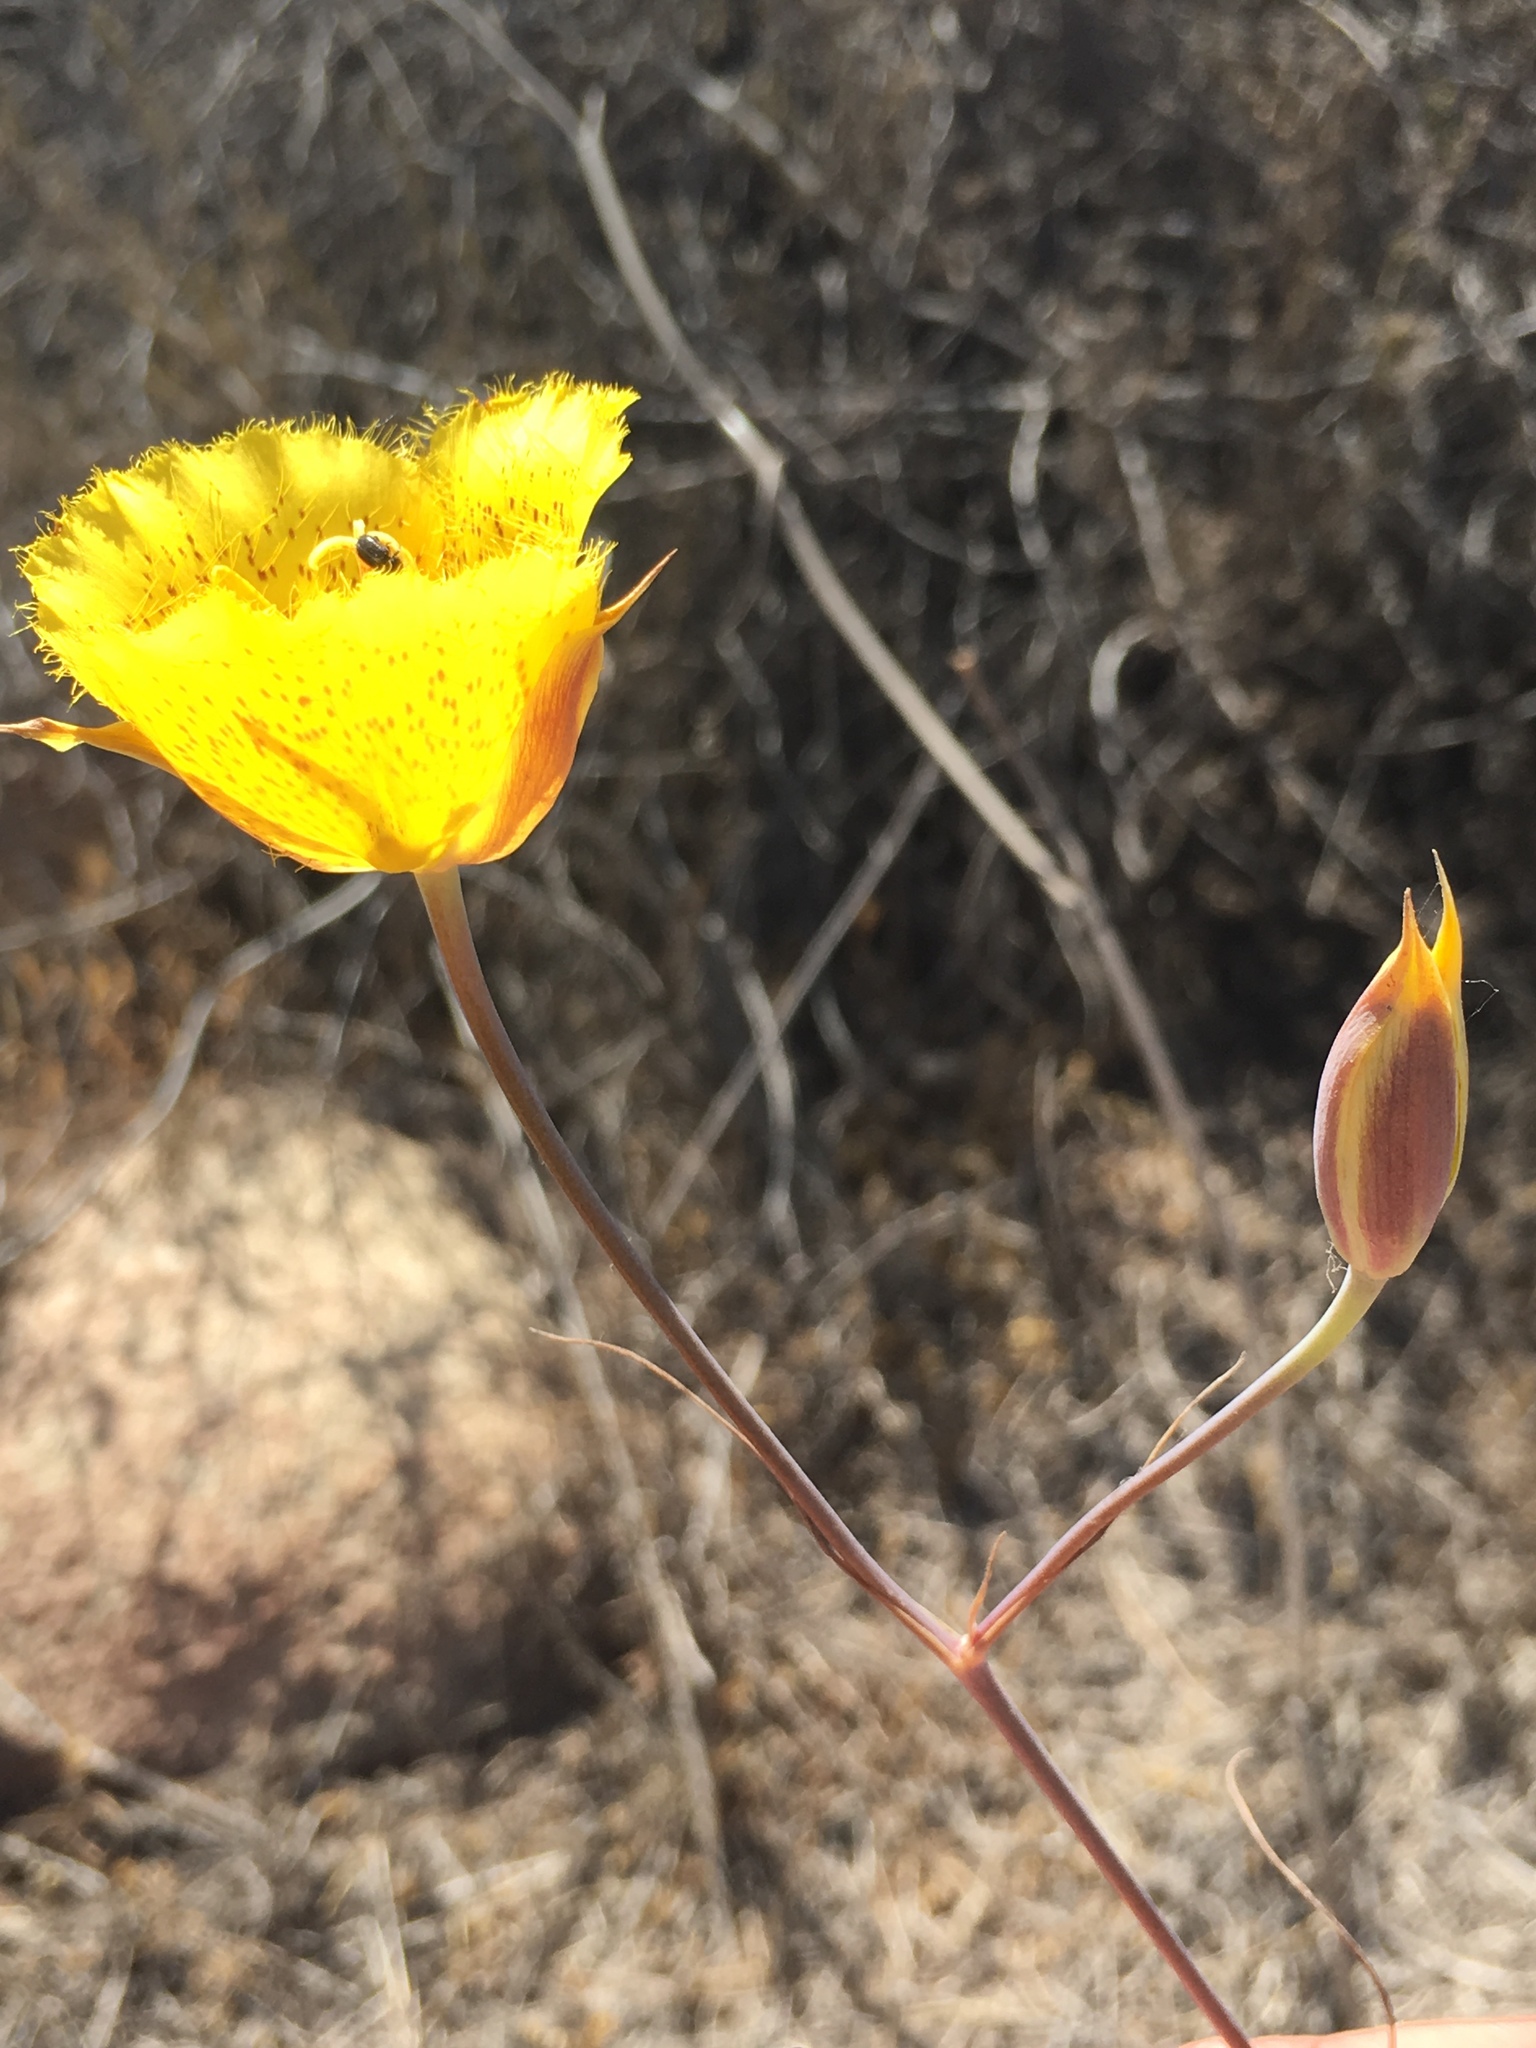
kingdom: Plantae
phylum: Tracheophyta
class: Liliopsida
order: Liliales
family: Liliaceae
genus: Calochortus
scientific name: Calochortus weedii
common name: Weed's mariposa-lily
